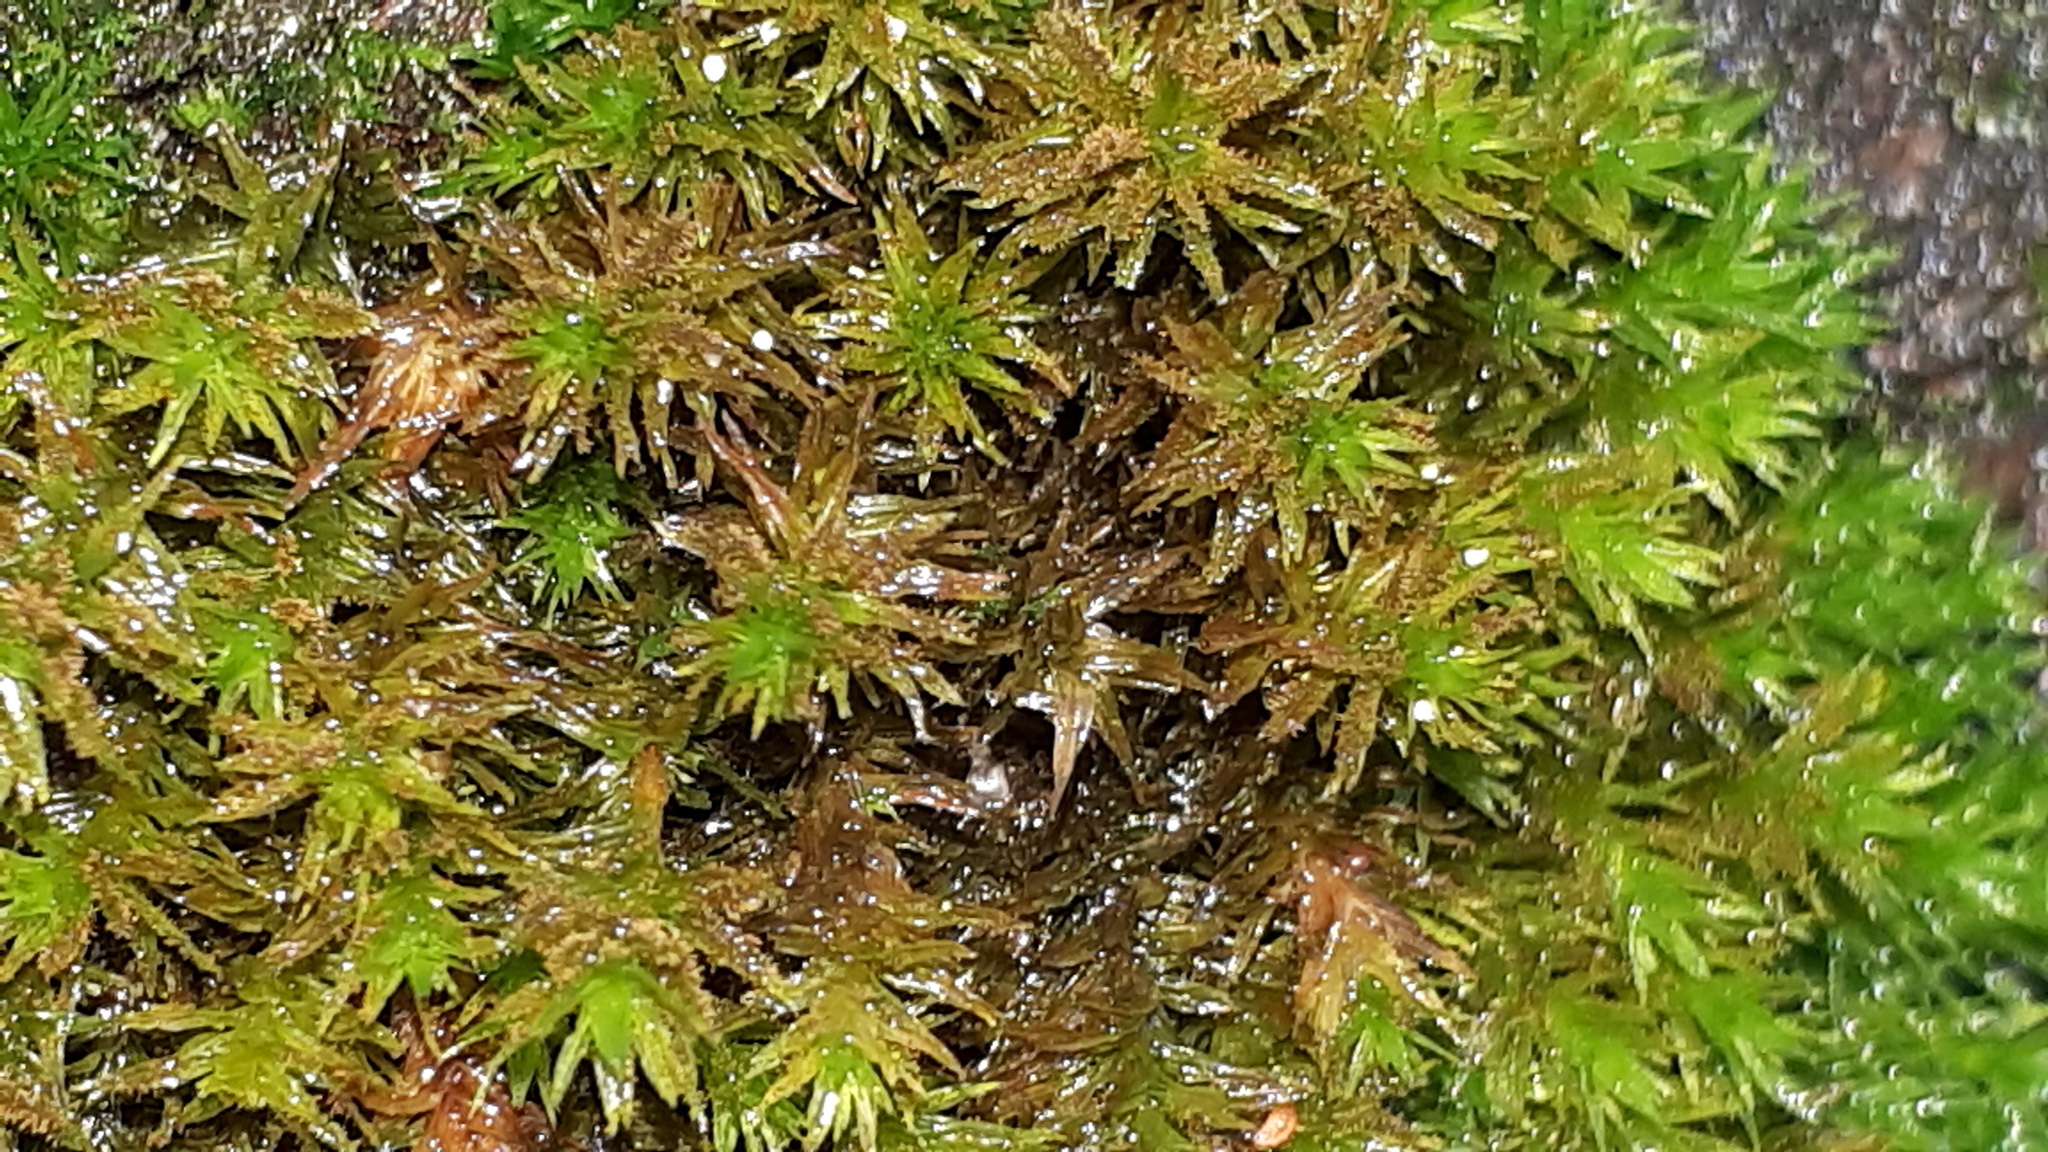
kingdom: Plantae
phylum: Bryophyta
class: Bryopsida
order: Orthotrichales
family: Orthotrichaceae
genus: Pulvigera
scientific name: Pulvigera lyellii
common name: Lyell's bristle-moss
